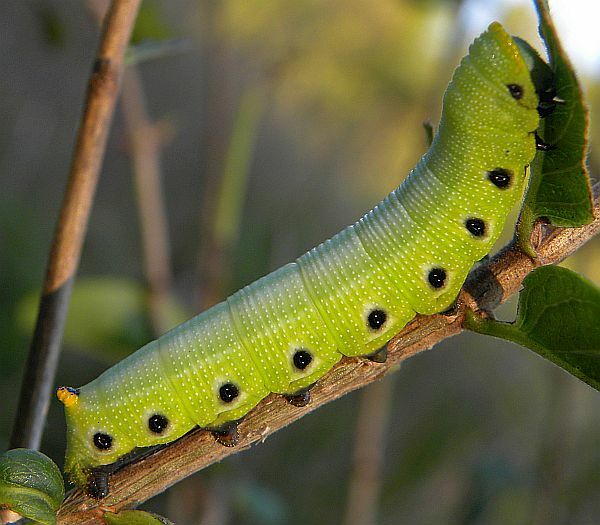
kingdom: Animalia
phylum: Arthropoda
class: Insecta
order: Lepidoptera
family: Sphingidae
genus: Hemaris
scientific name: Hemaris diffinis
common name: Bumblebee moth
